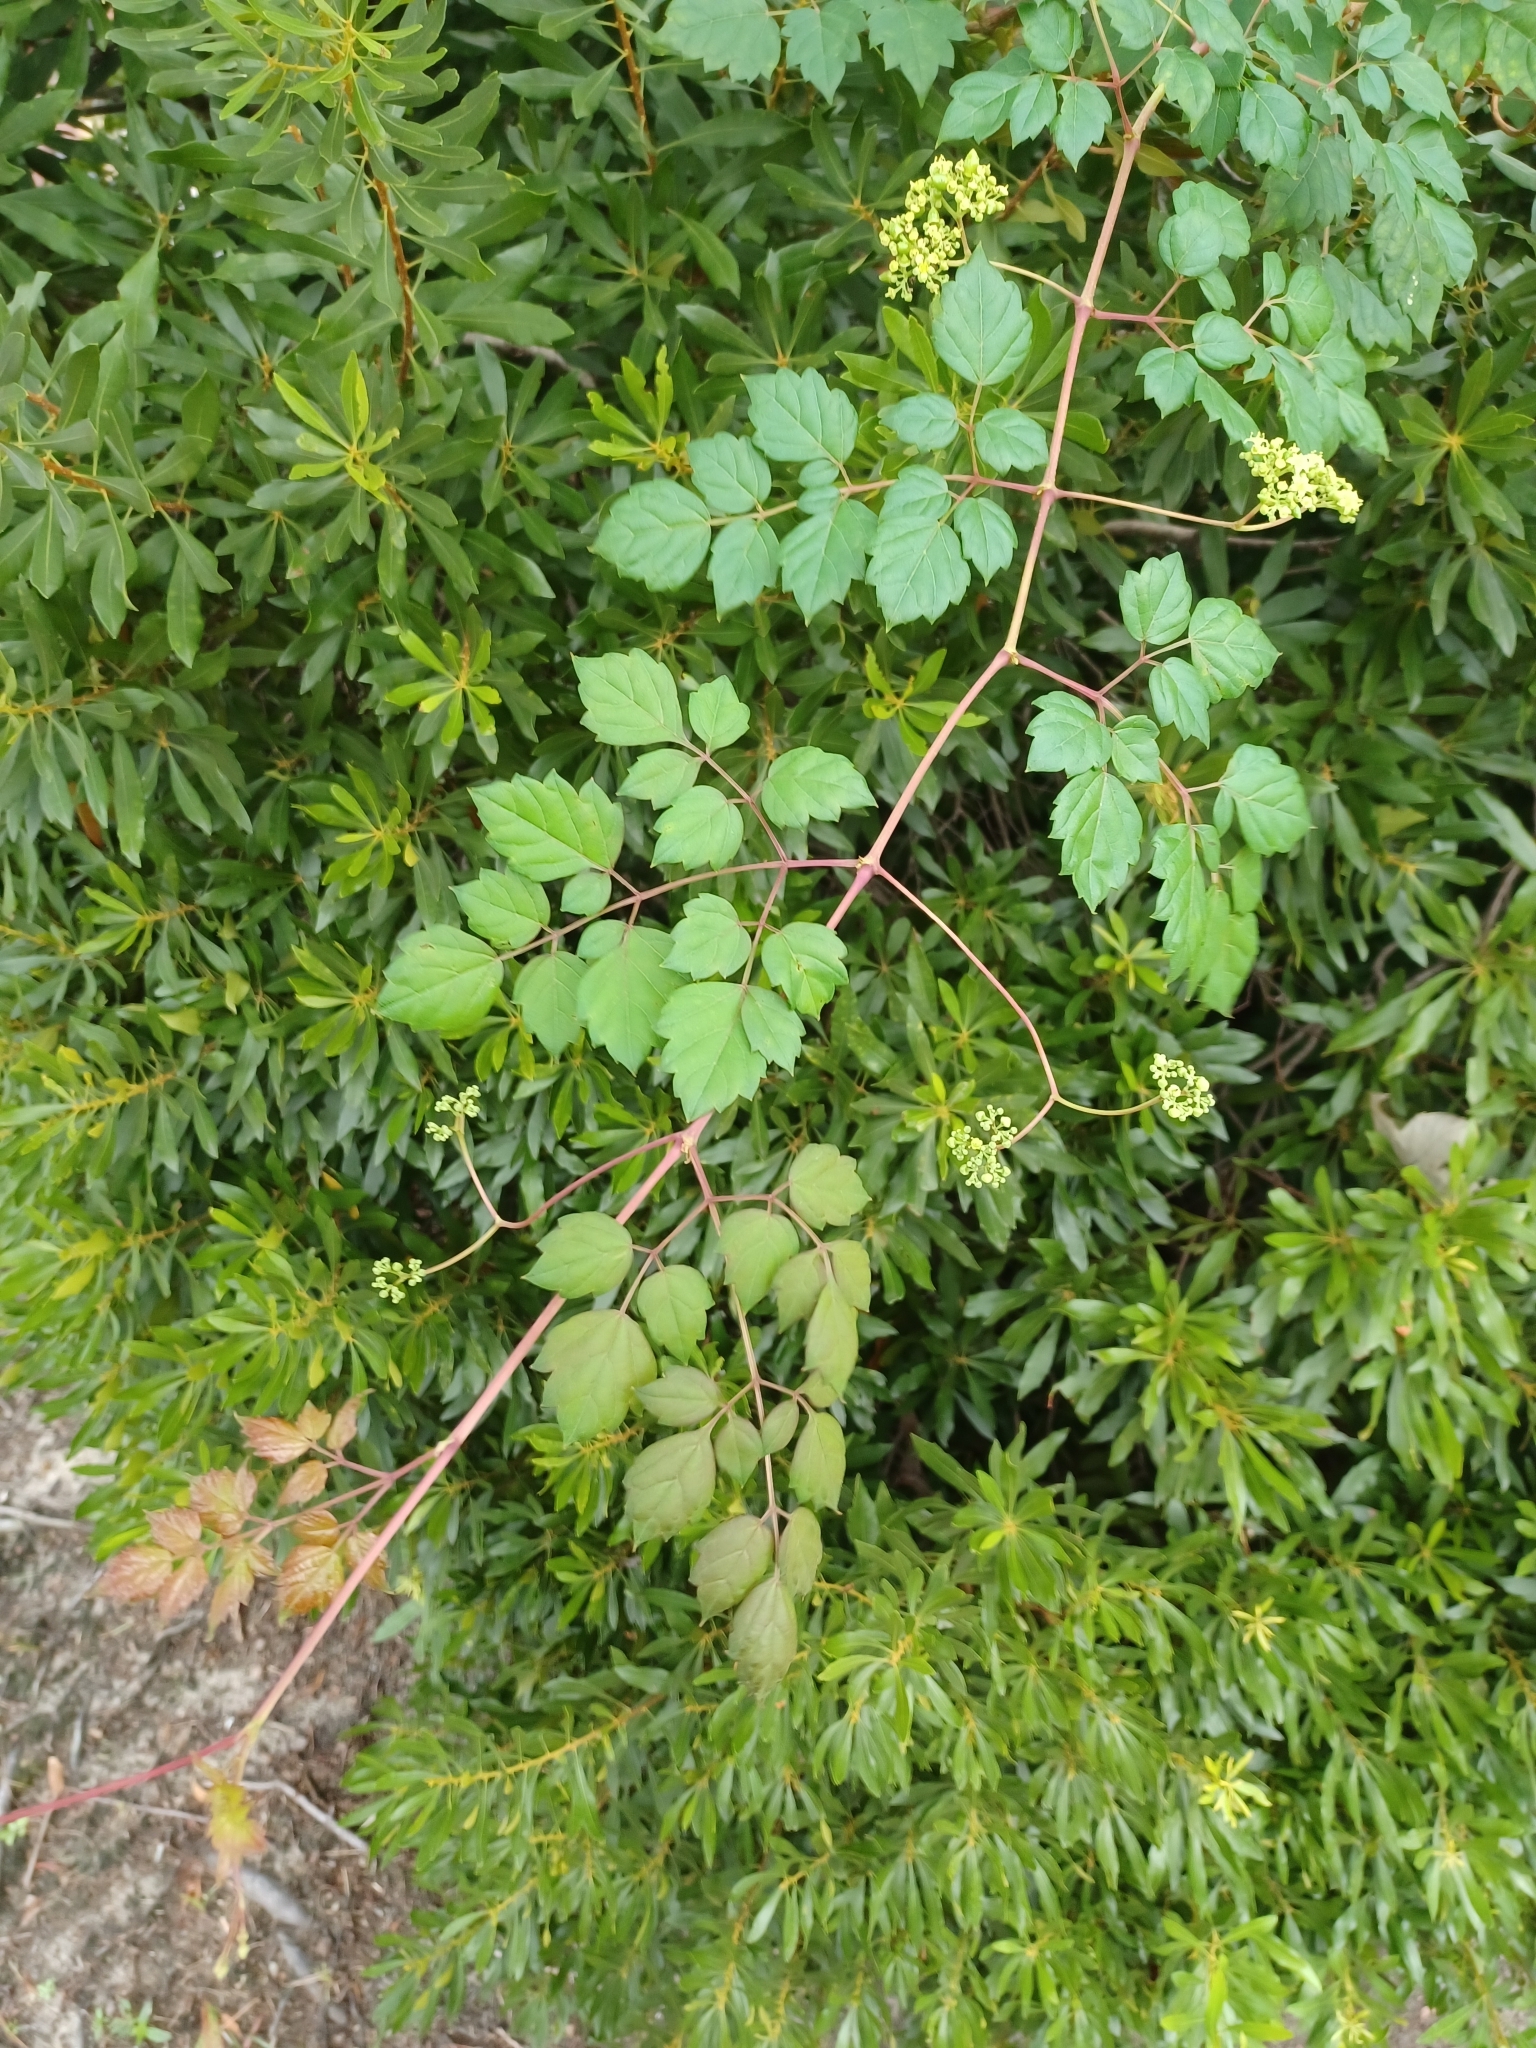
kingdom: Plantae
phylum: Tracheophyta
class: Magnoliopsida
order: Vitales
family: Vitaceae
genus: Nekemias
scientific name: Nekemias arborea
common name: Peppervine
